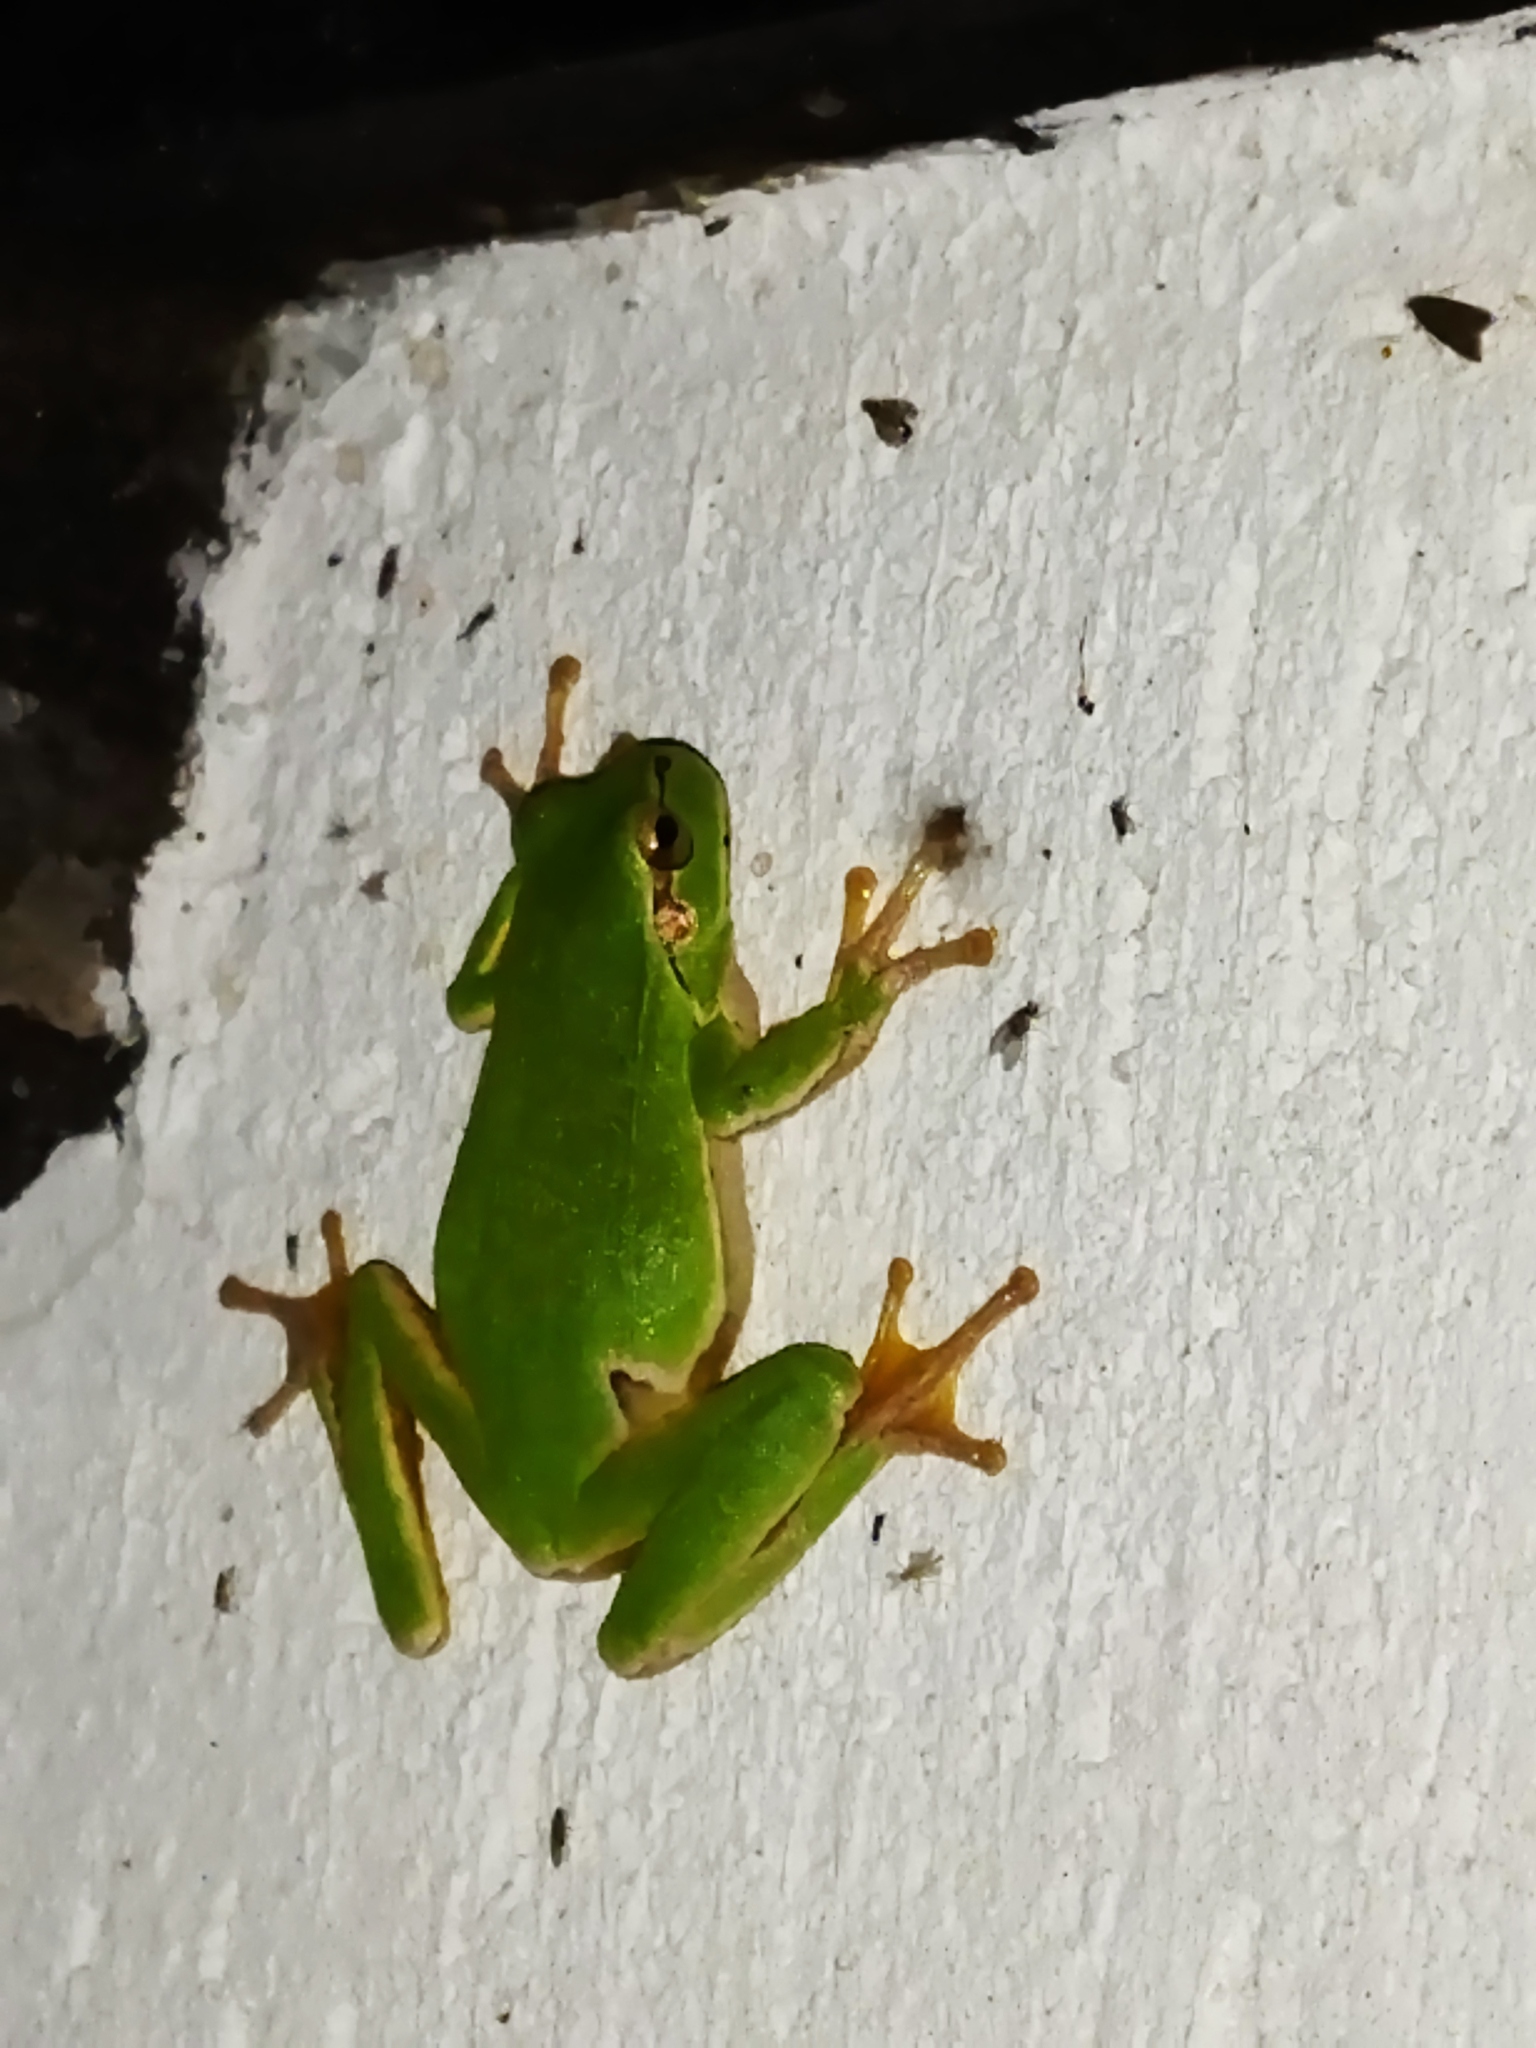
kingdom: Animalia
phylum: Chordata
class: Amphibia
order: Anura
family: Hylidae
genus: Hyla
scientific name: Hyla orientalis
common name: Caucasian treefrog
